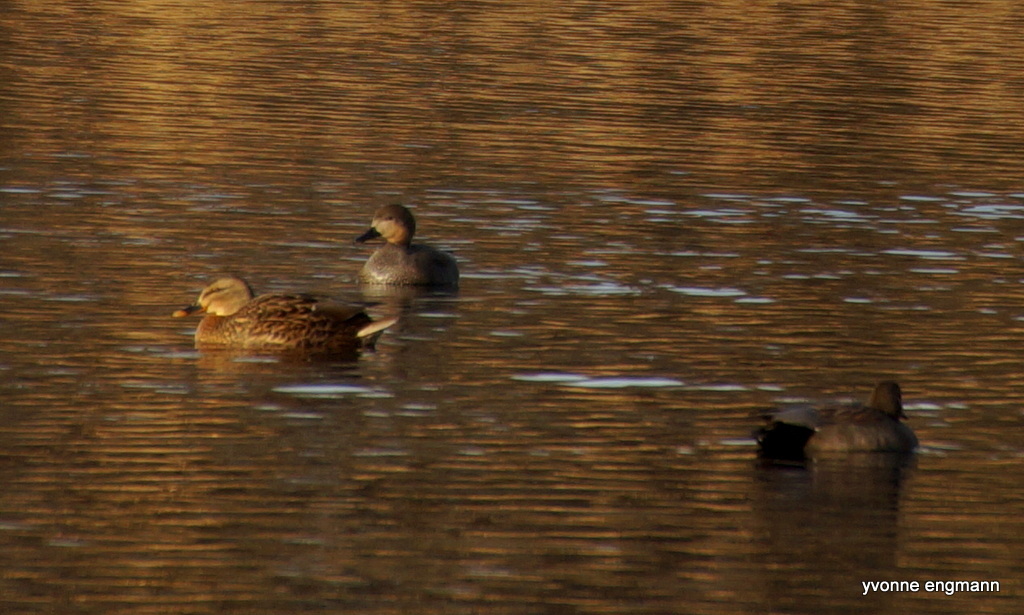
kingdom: Animalia
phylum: Chordata
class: Aves
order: Anseriformes
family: Anatidae
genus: Mareca
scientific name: Mareca strepera
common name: Gadwall
